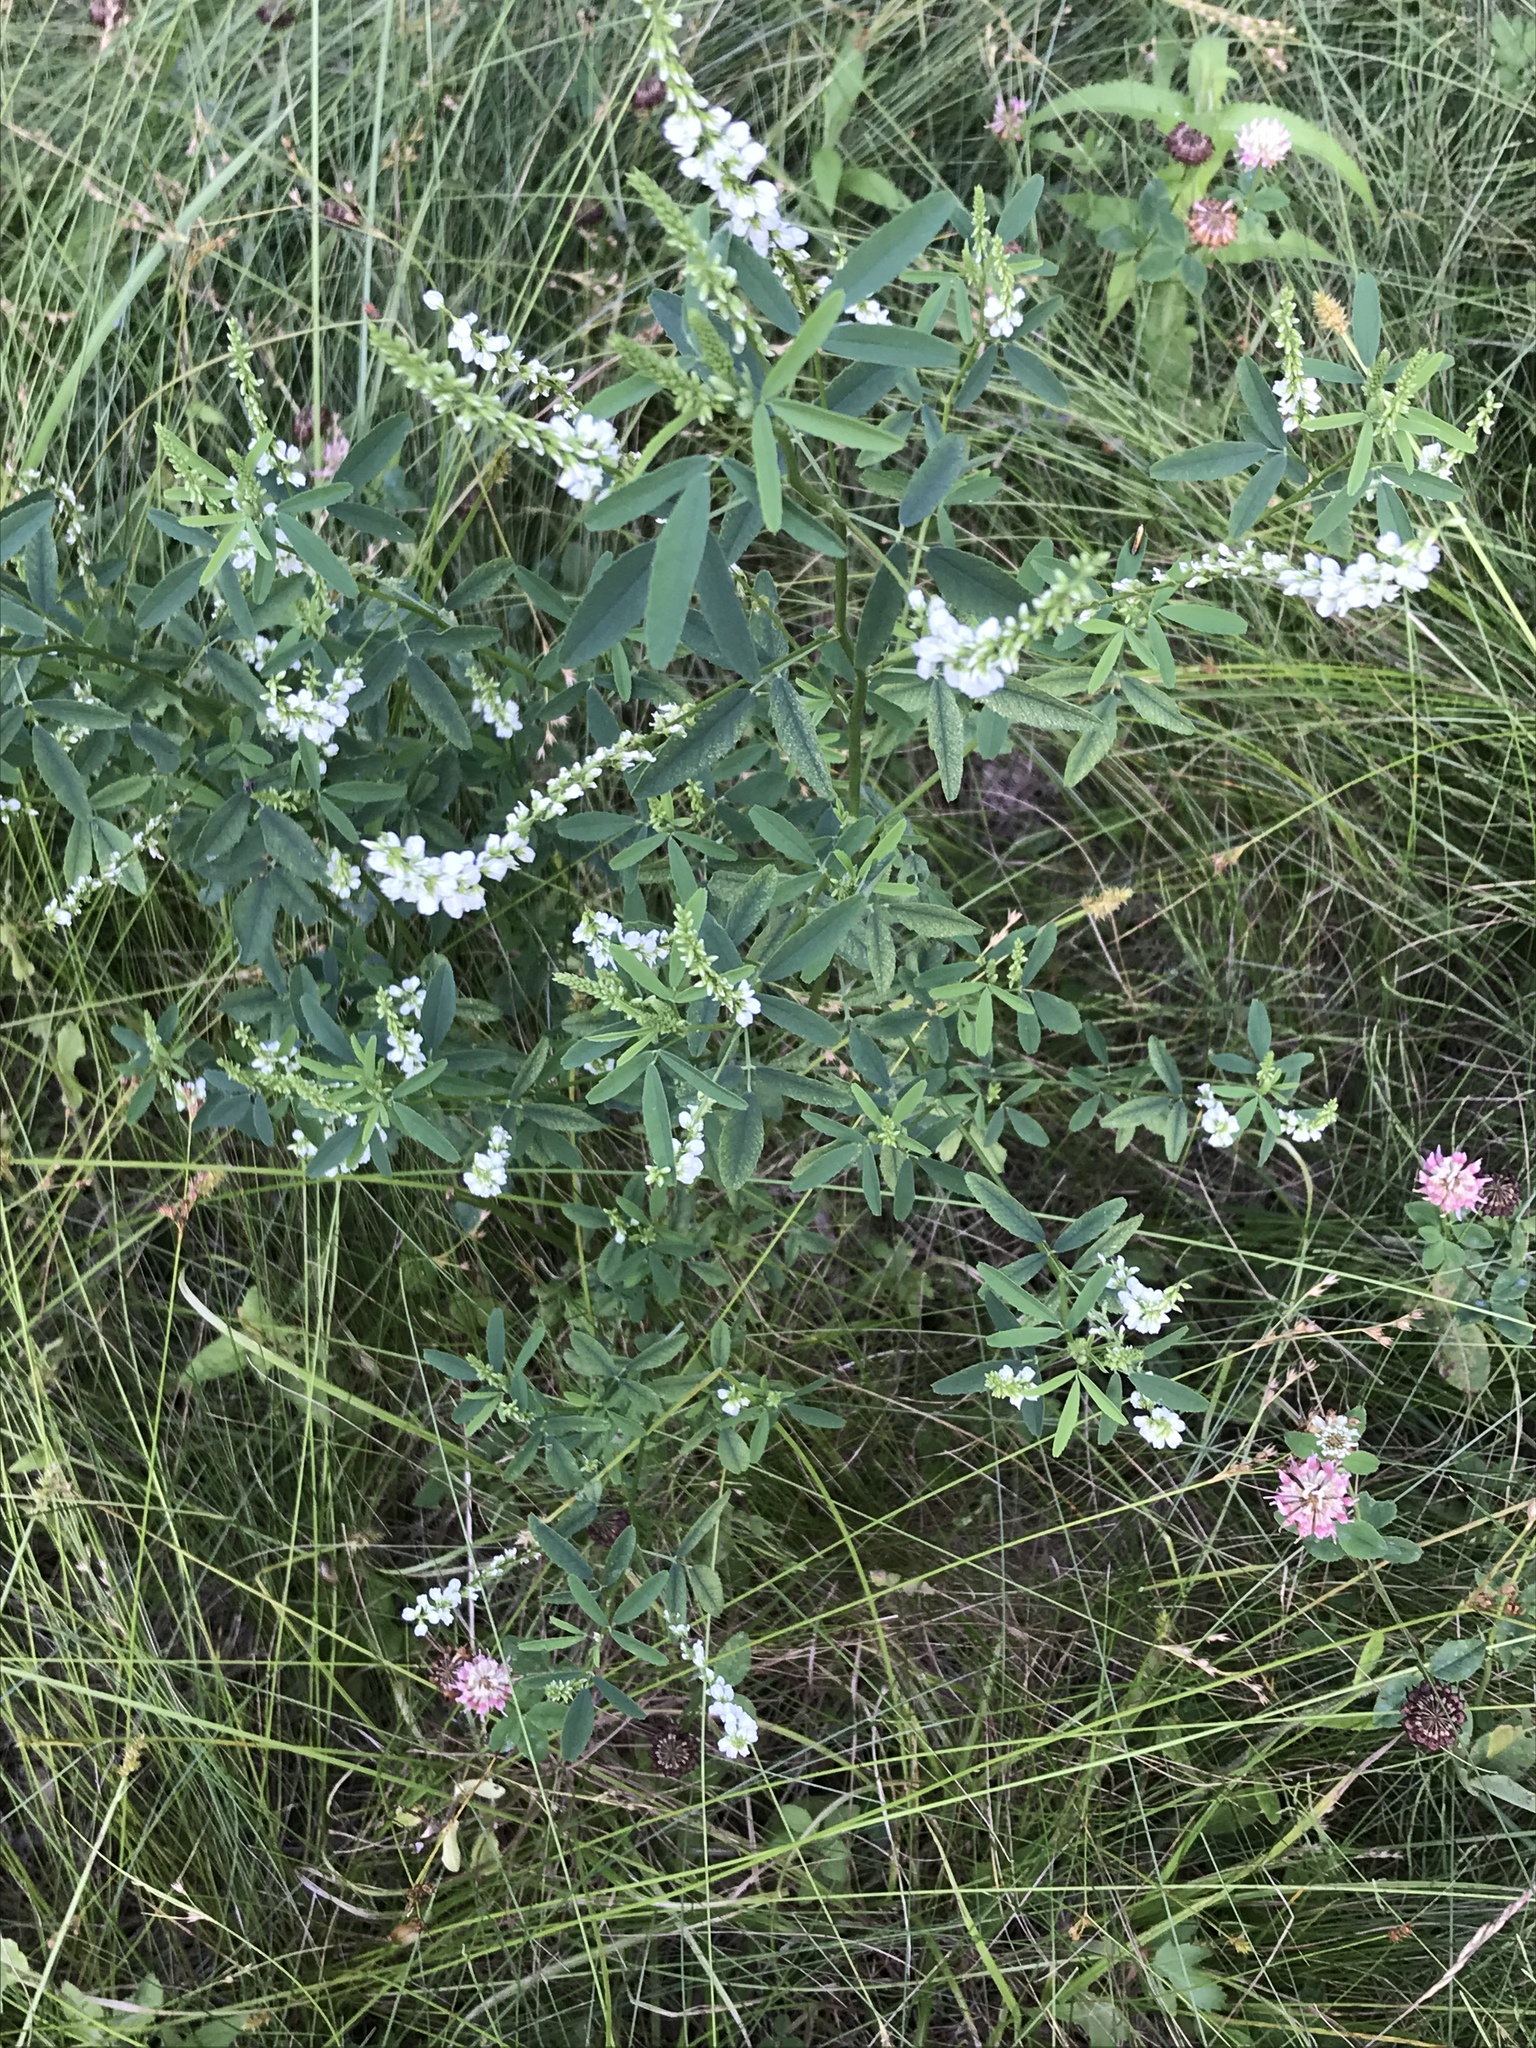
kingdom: Plantae
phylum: Tracheophyta
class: Magnoliopsida
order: Fabales
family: Fabaceae
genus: Melilotus
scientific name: Melilotus albus
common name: White melilot
